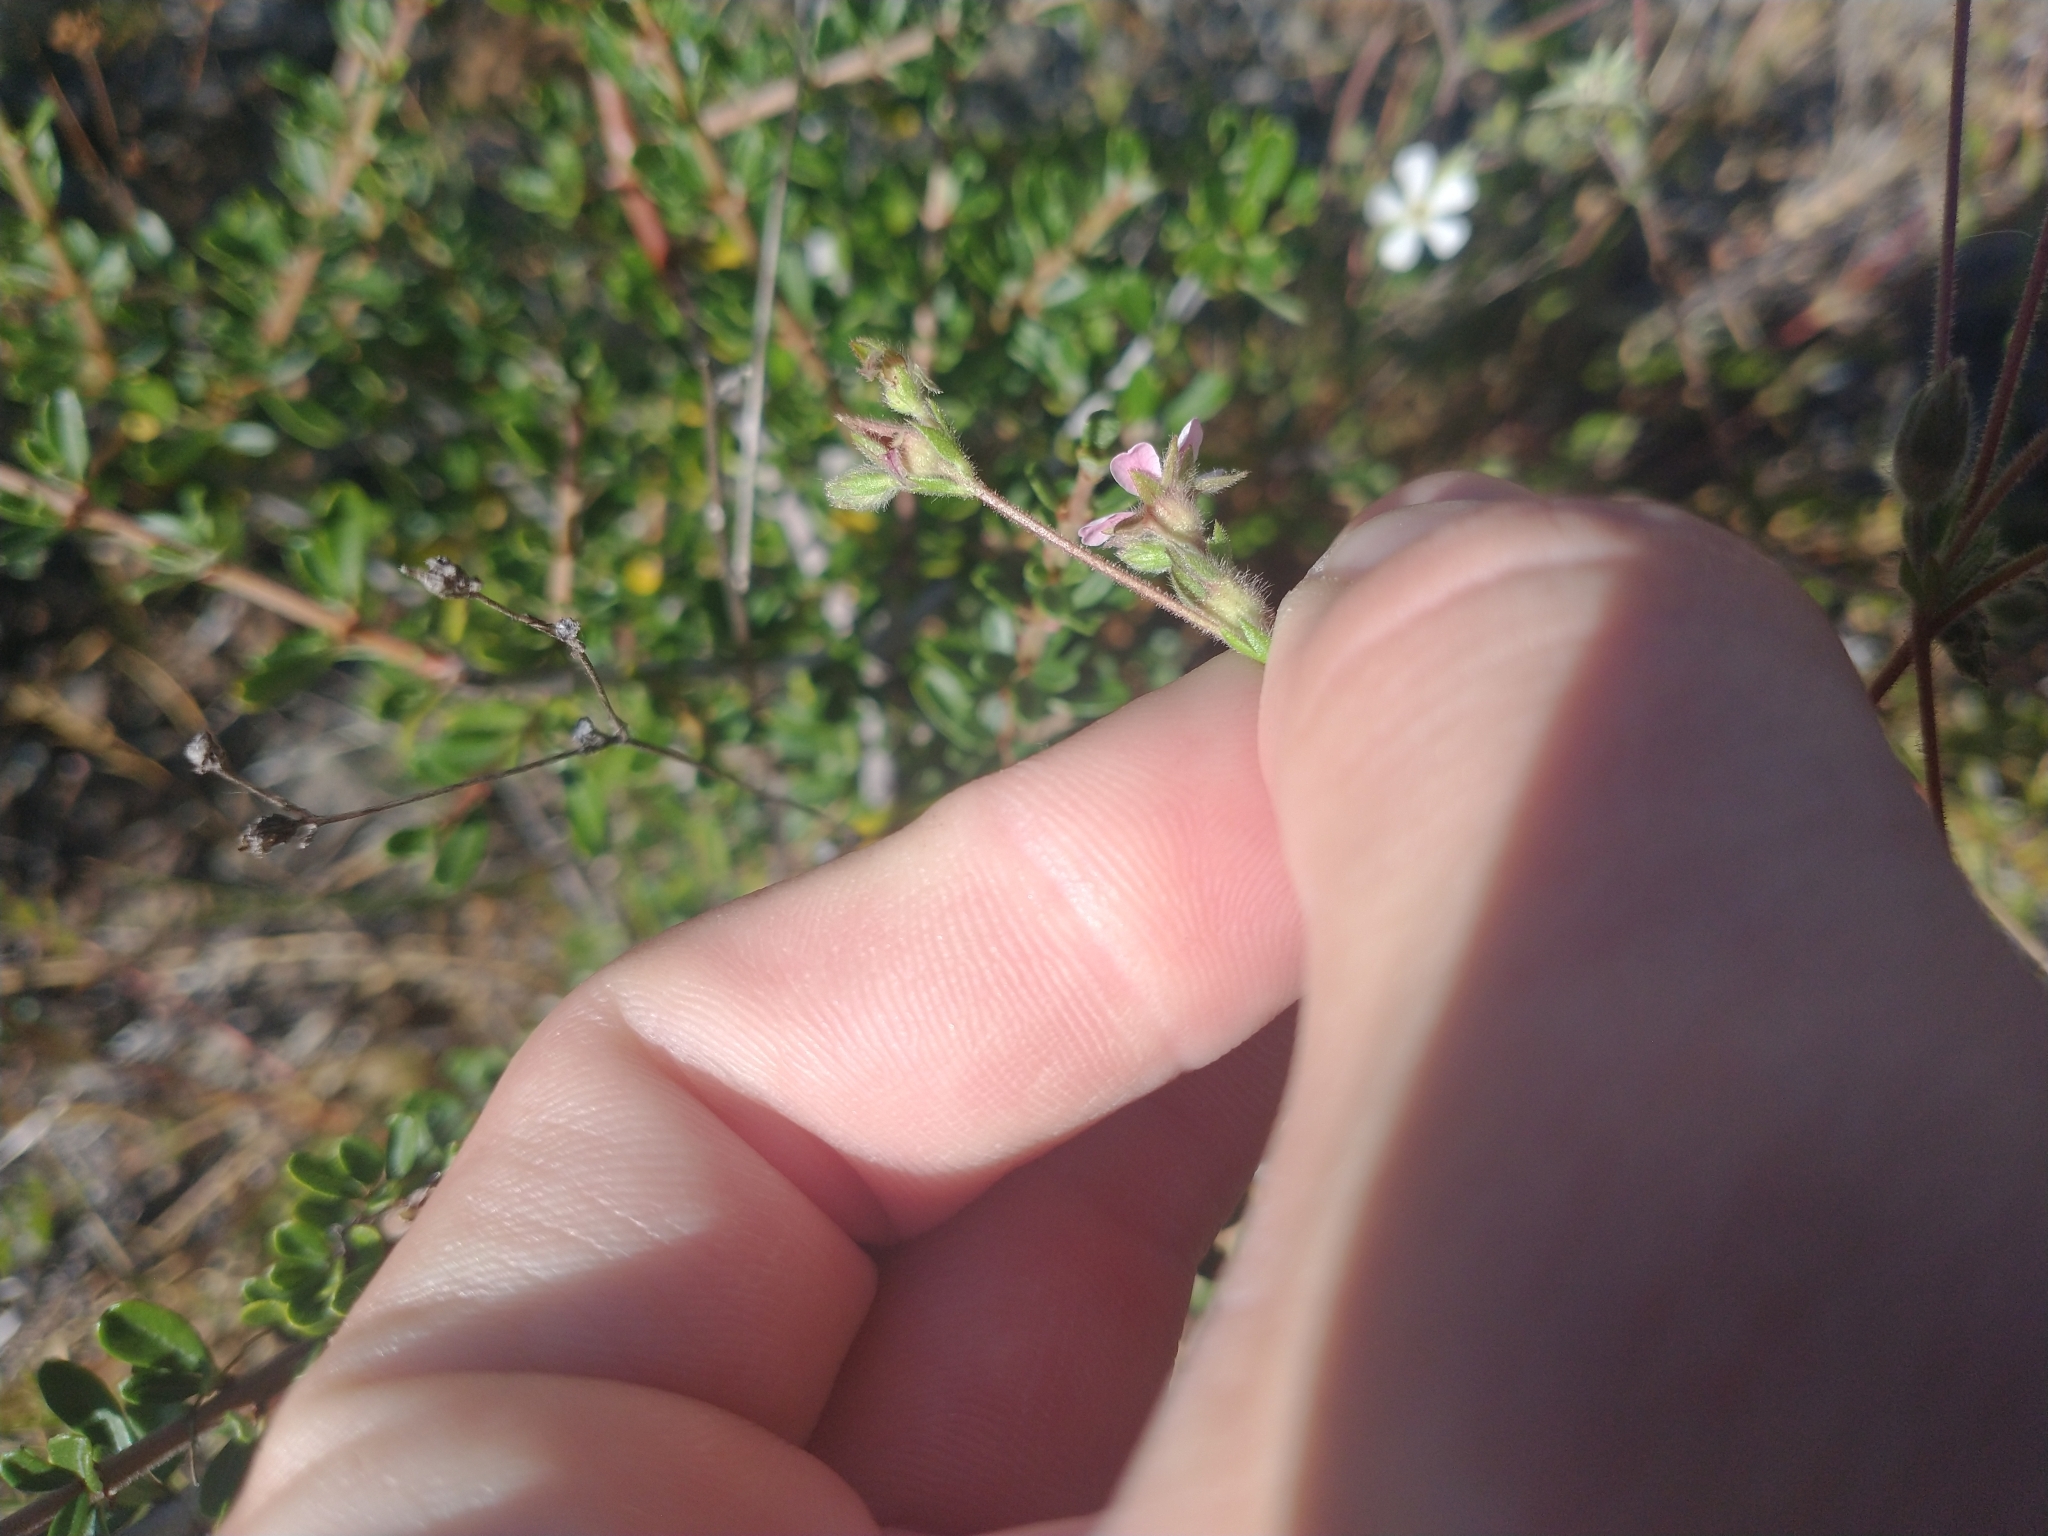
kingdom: Plantae
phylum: Tracheophyta
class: Magnoliopsida
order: Rosales
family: Rosaceae
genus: Potentilla
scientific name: Potentilla howellii
